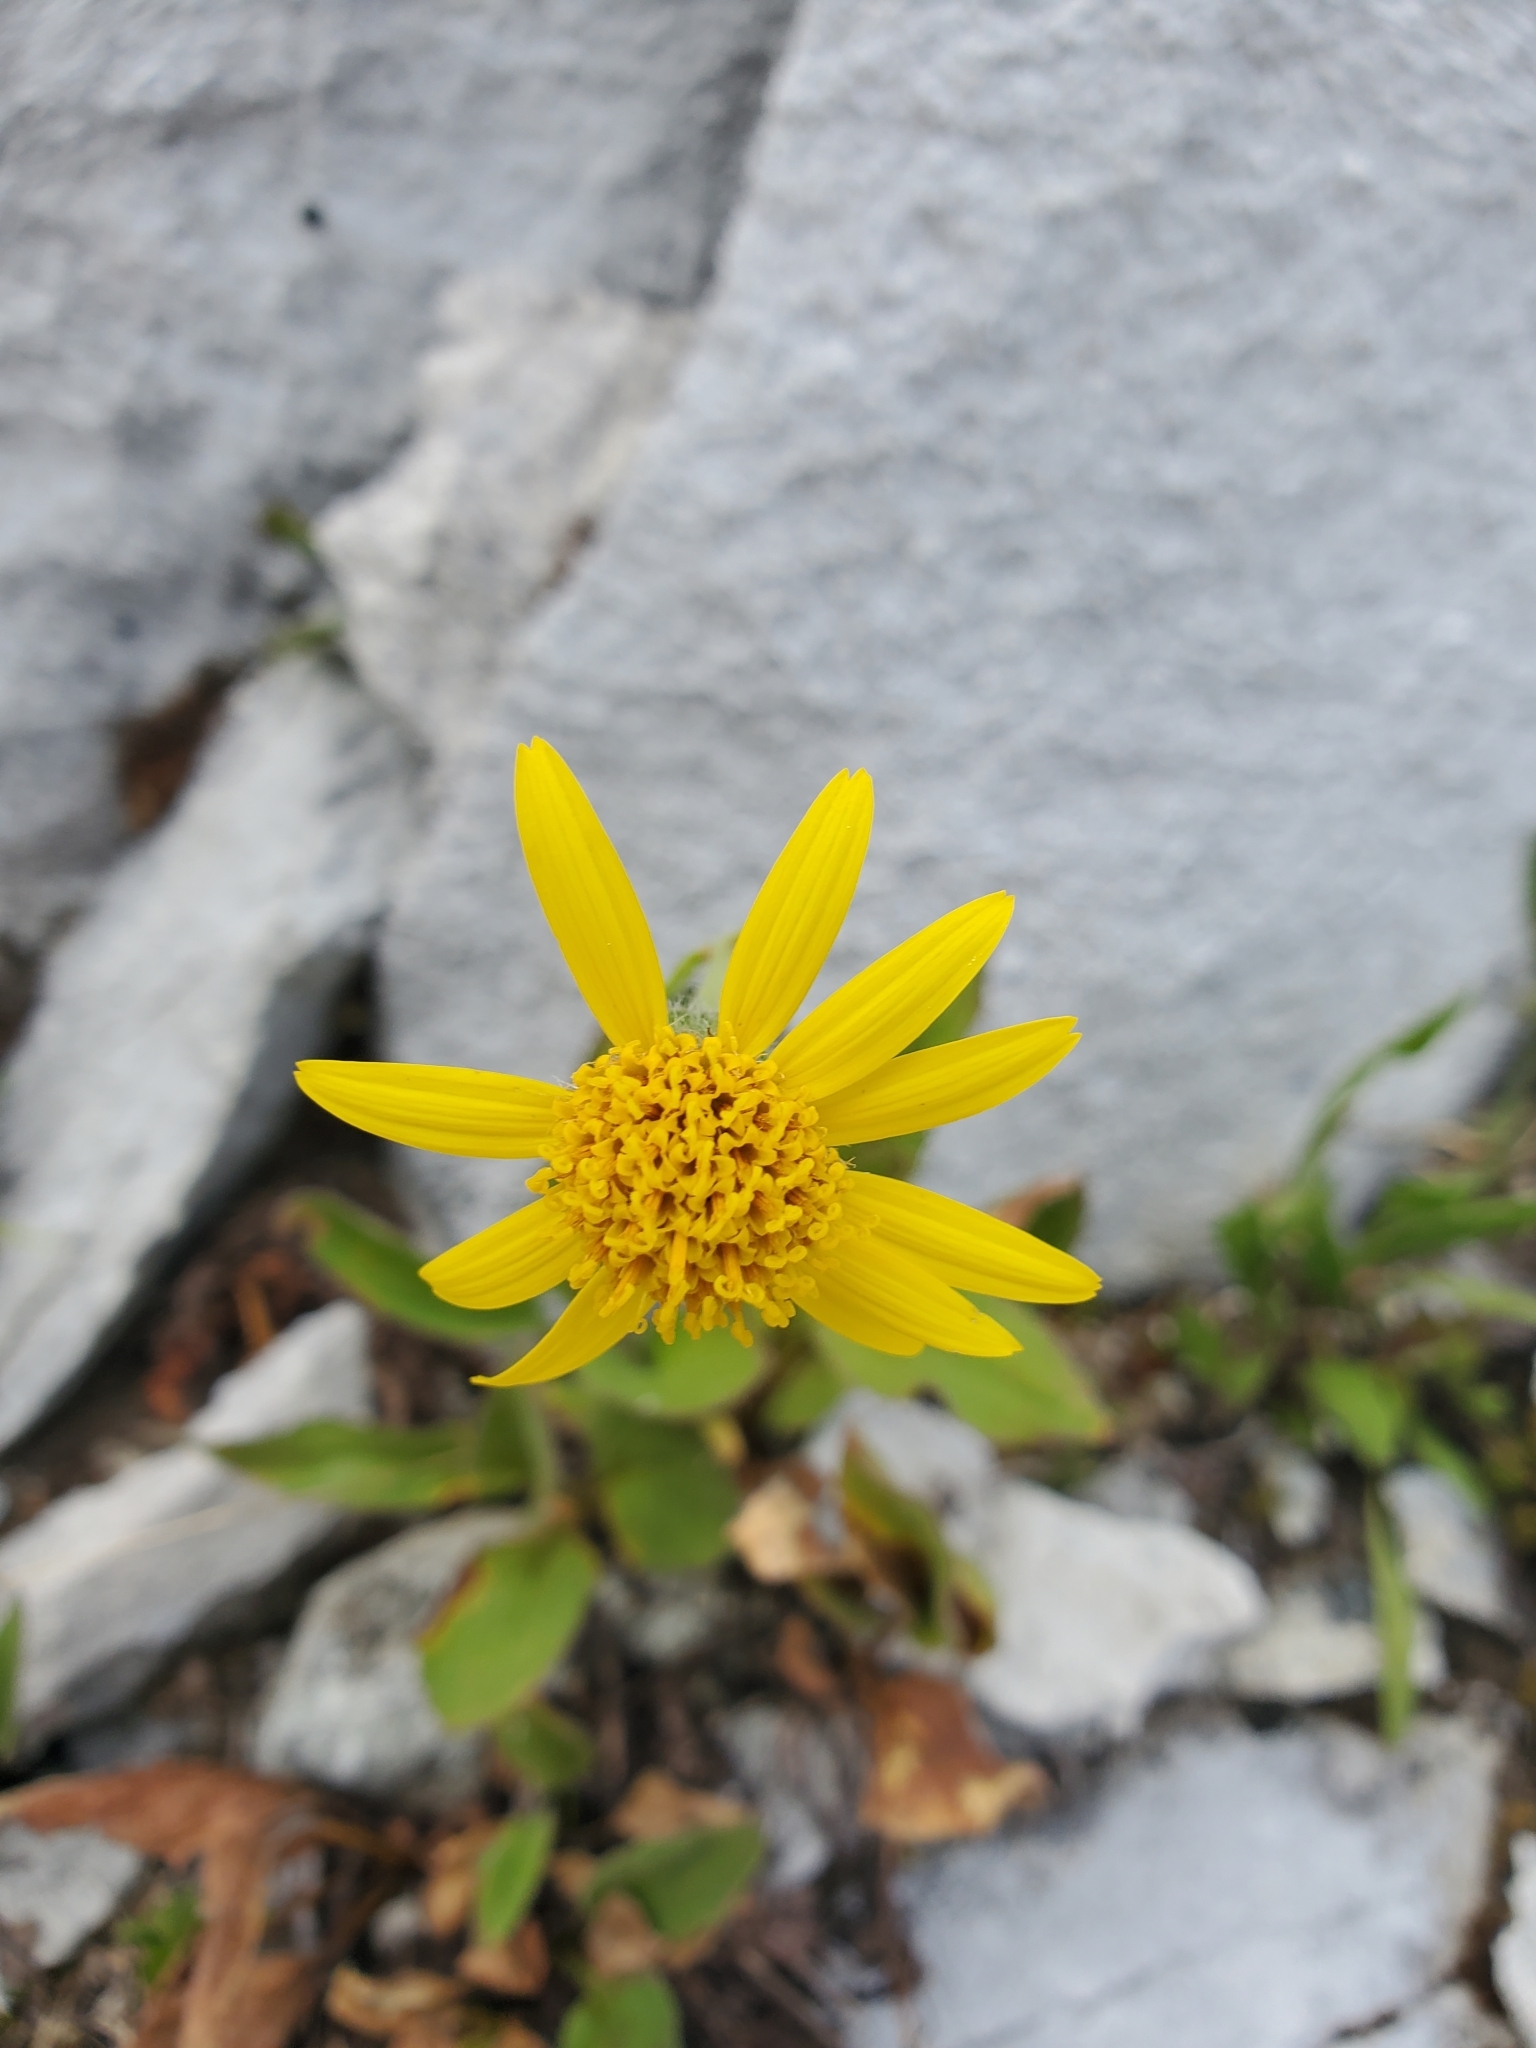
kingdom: Plantae
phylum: Tracheophyta
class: Magnoliopsida
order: Asterales
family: Asteraceae
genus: Arnica
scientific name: Arnica latifolia
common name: Arnica
